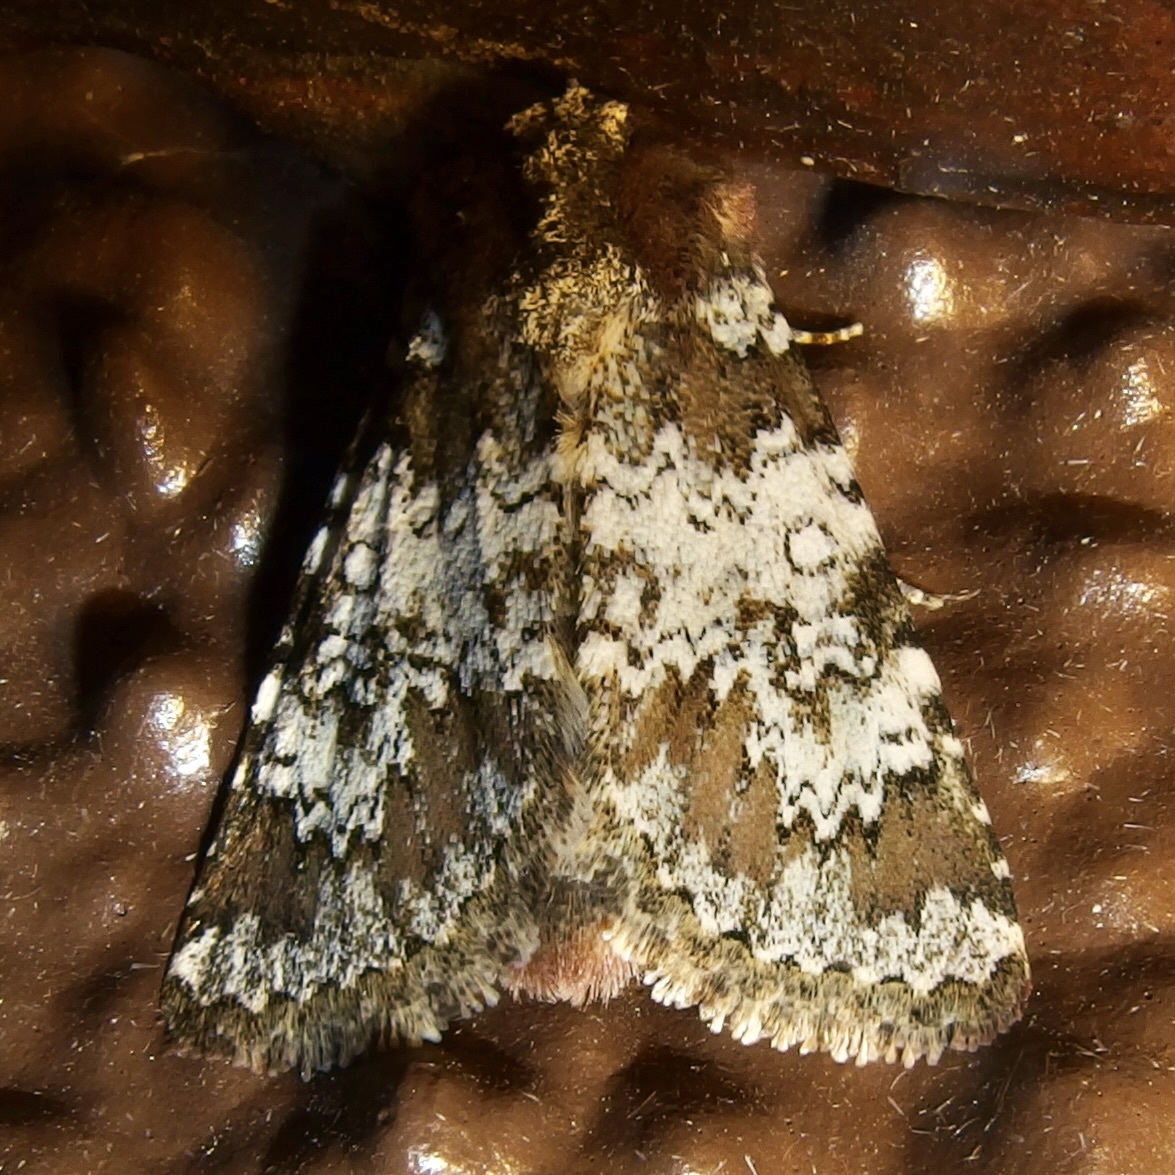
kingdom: Animalia
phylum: Arthropoda
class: Insecta
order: Lepidoptera
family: Noctuidae
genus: Hemibryomima
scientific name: Hemibryomima chryselectra
